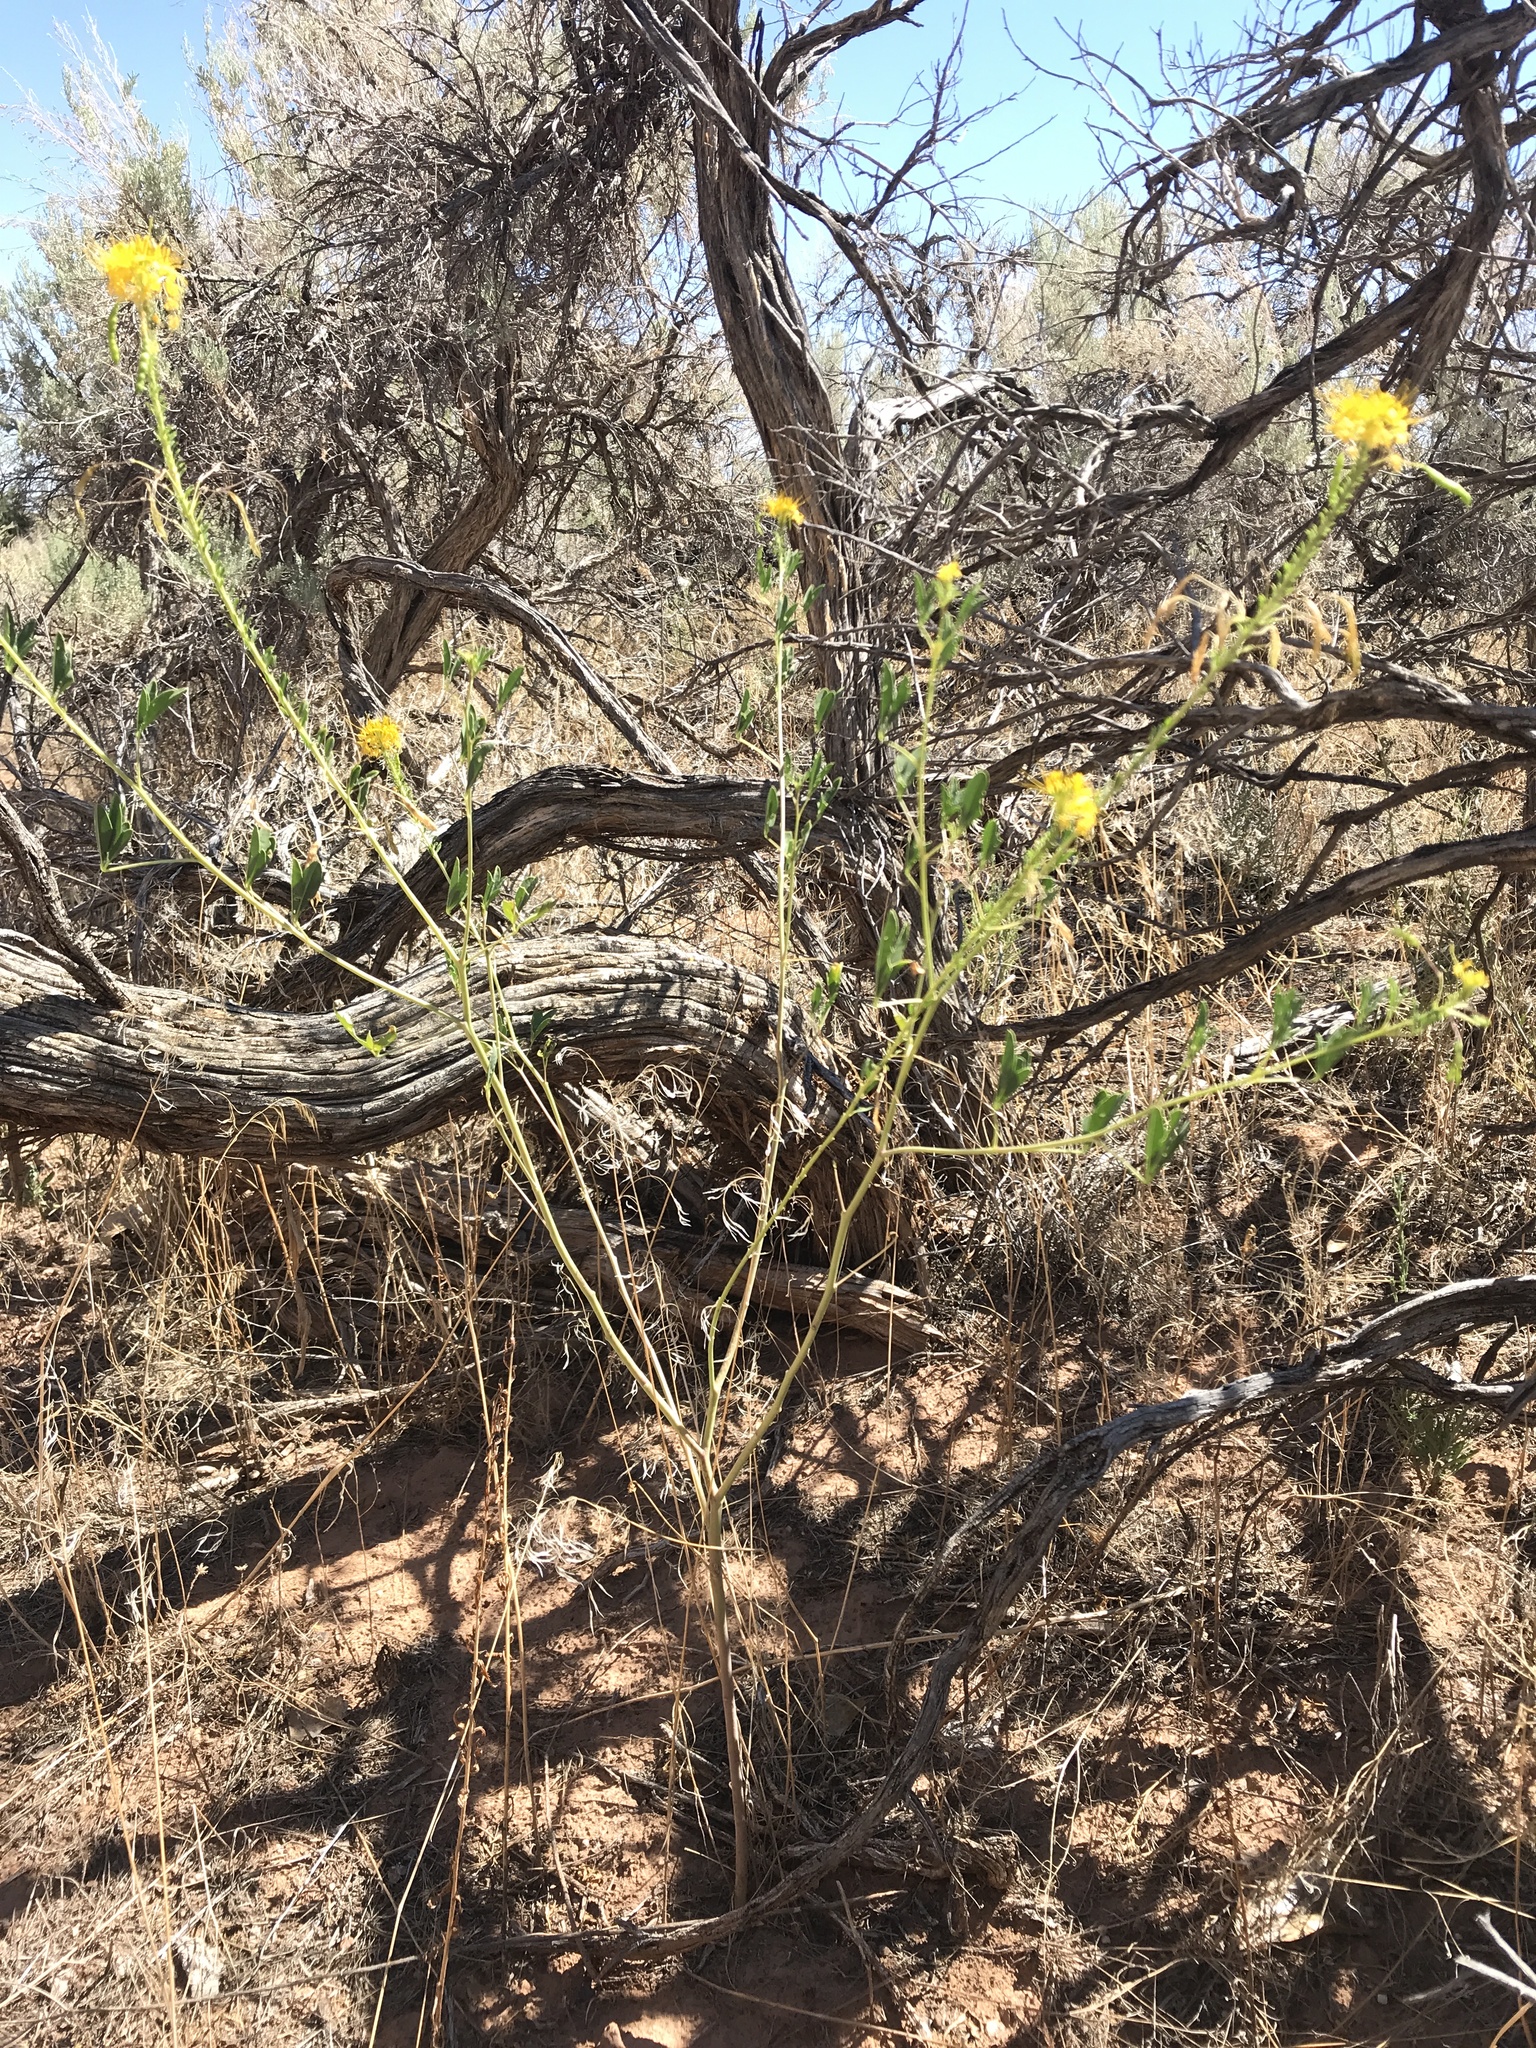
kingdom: Plantae
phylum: Tracheophyta
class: Magnoliopsida
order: Brassicales
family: Cleomaceae
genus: Cleomella
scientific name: Cleomella lutea
